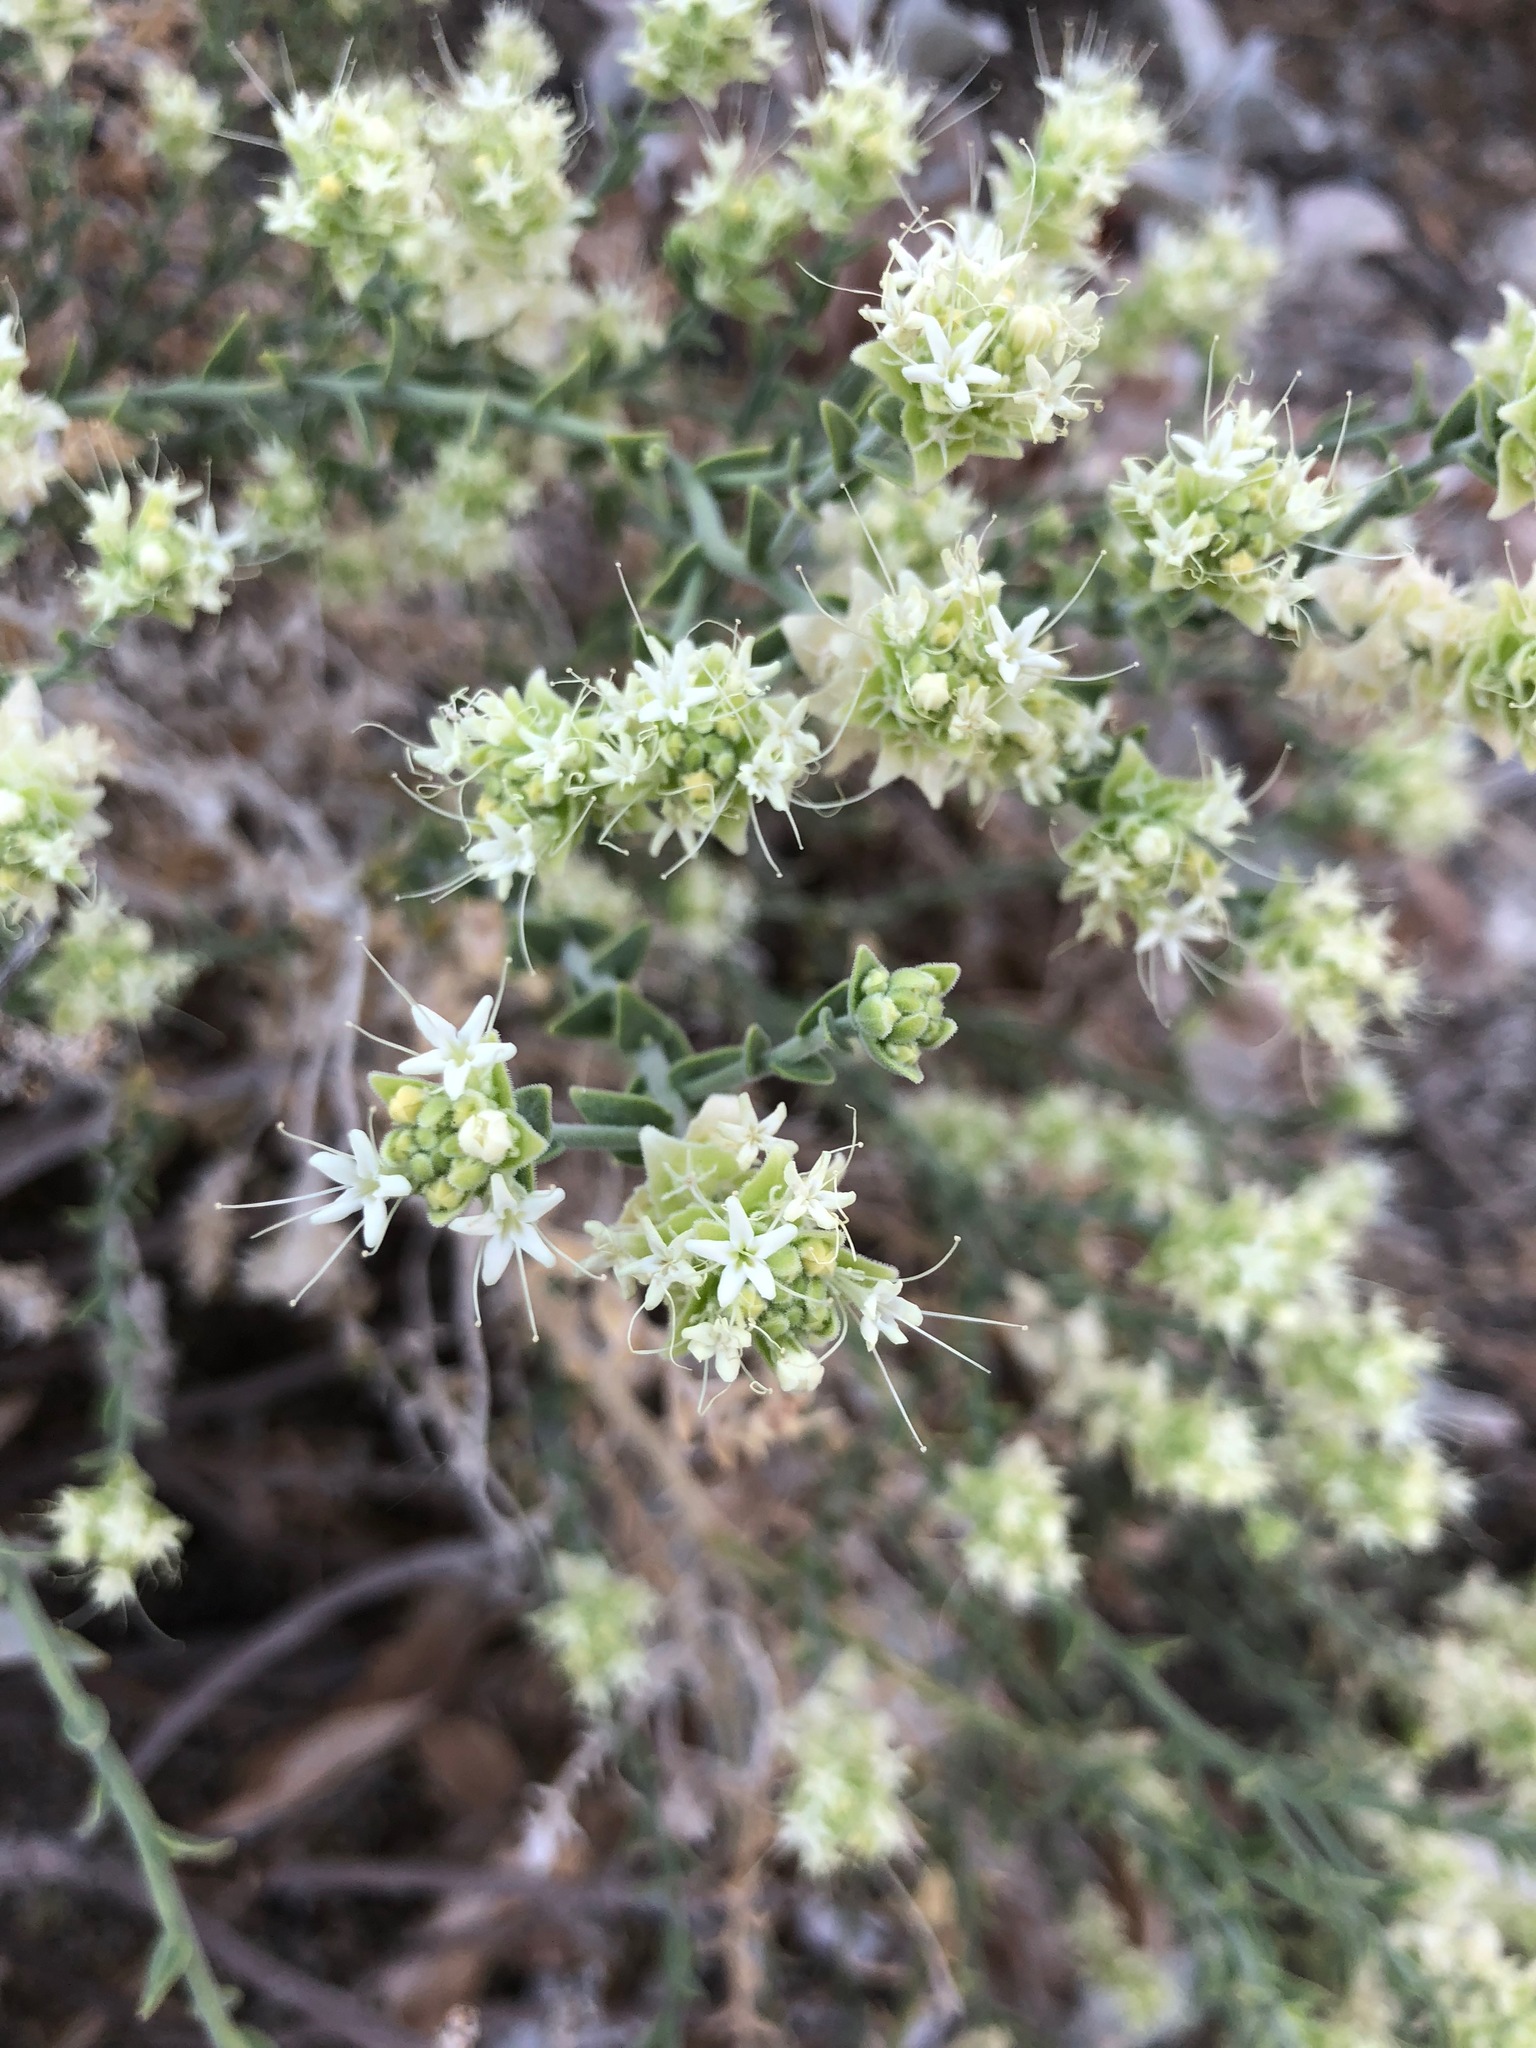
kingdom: Plantae
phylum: Tracheophyta
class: Magnoliopsida
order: Cornales
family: Loasaceae
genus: Petalonyx
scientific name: Petalonyx thurberi
